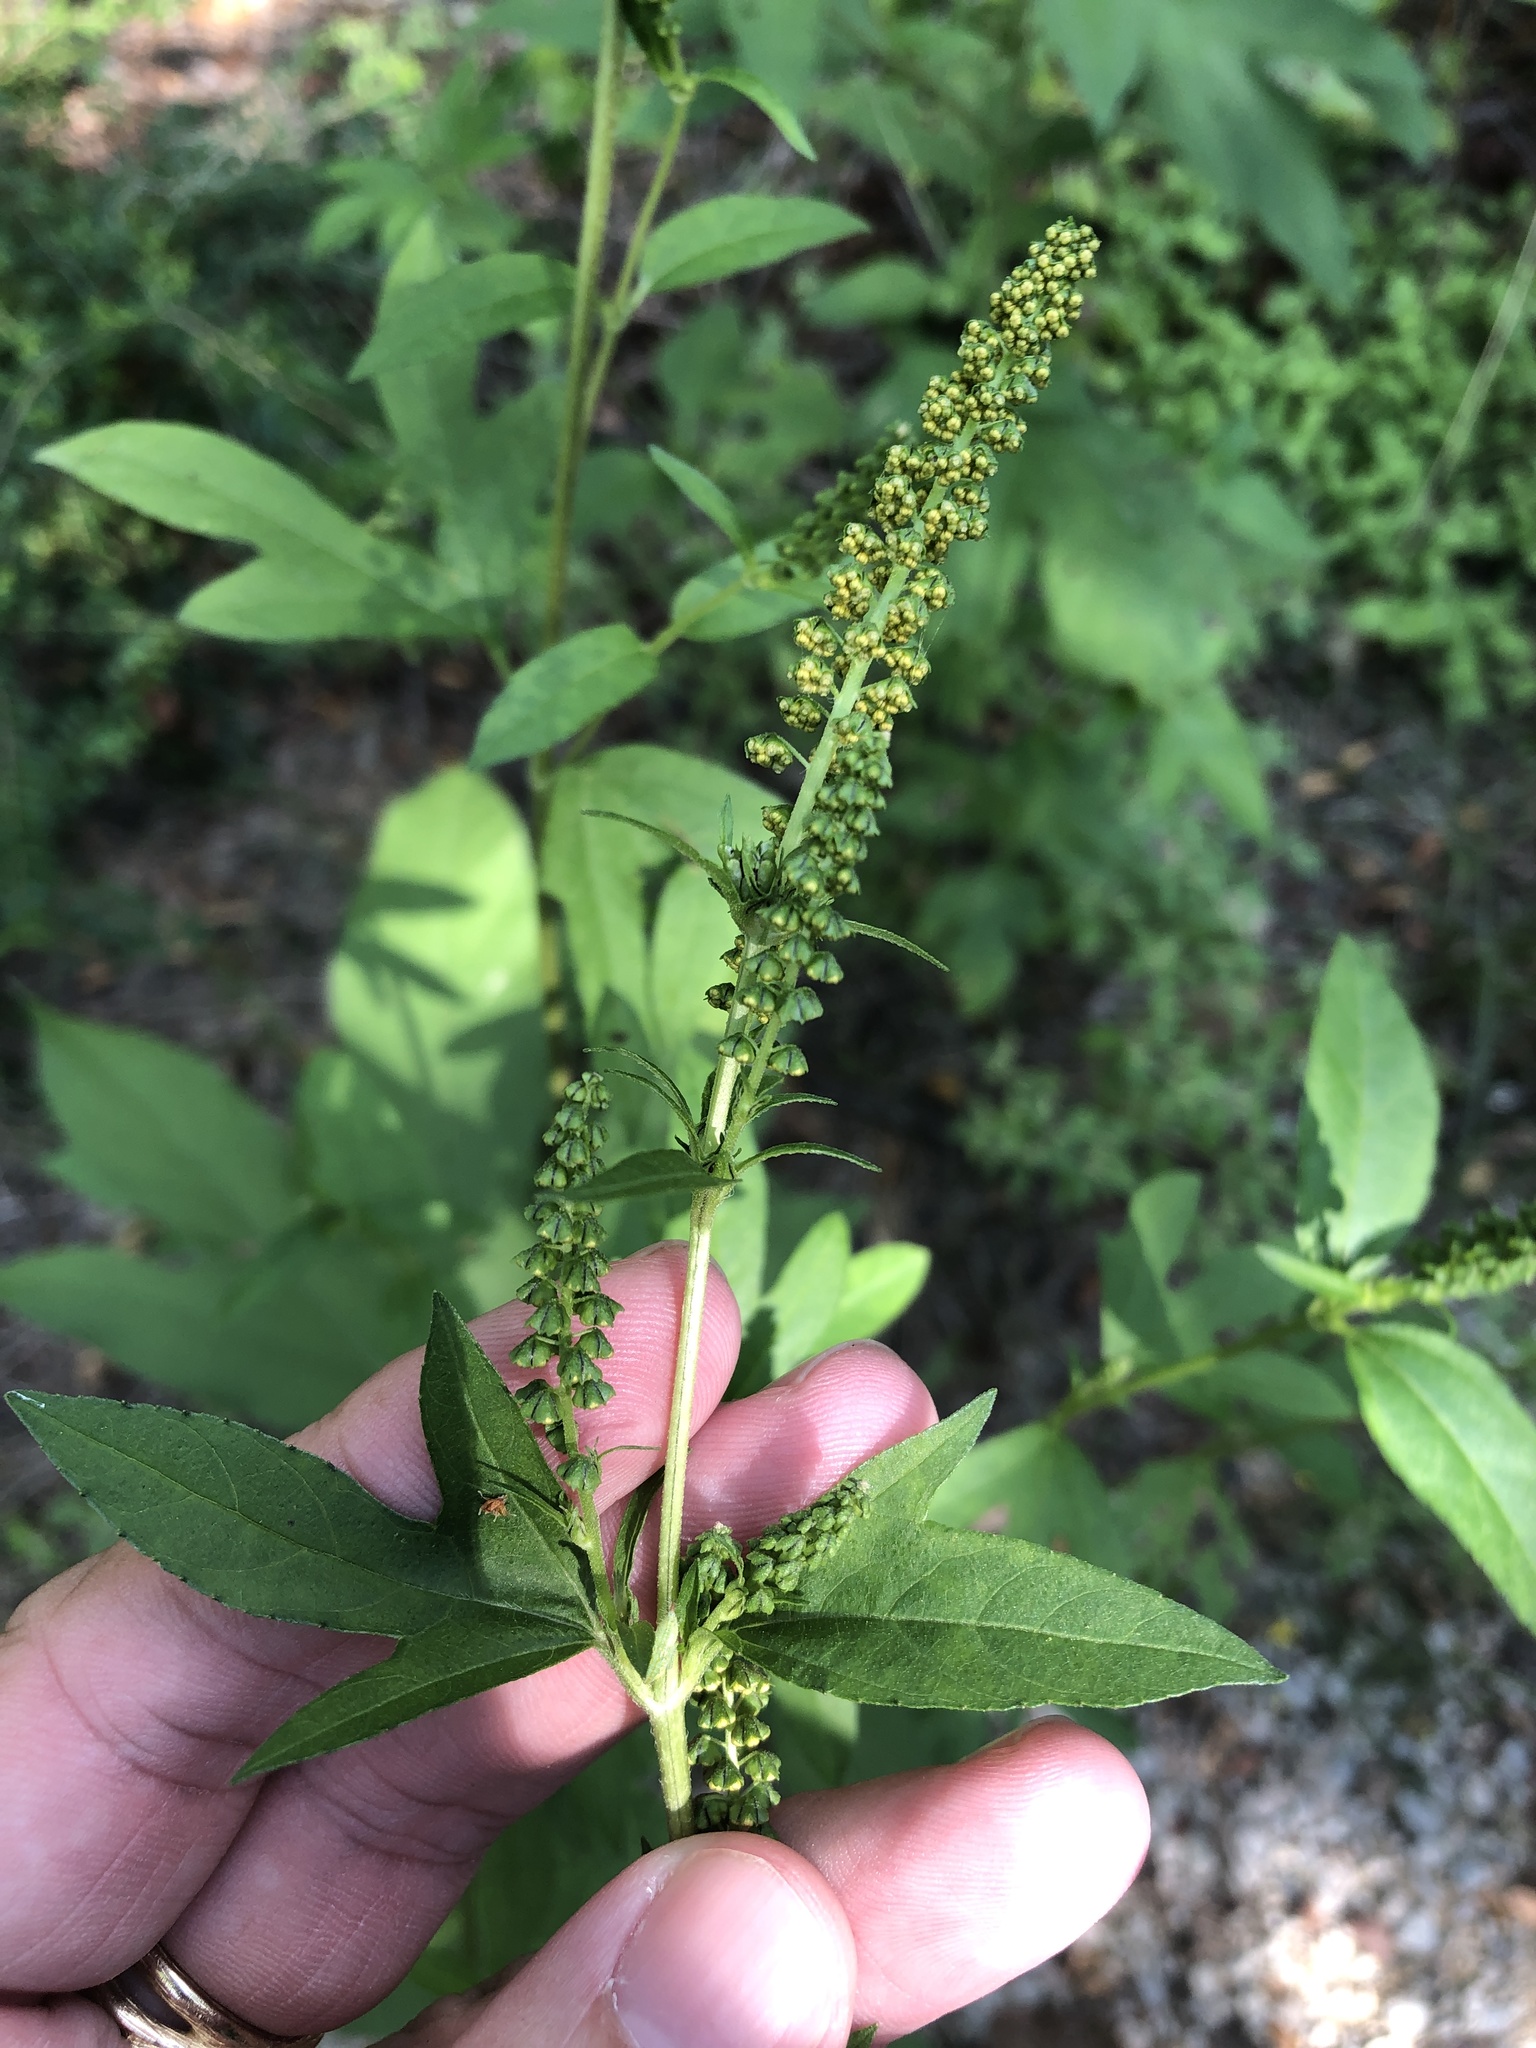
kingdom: Plantae
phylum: Tracheophyta
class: Magnoliopsida
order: Asterales
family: Asteraceae
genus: Ambrosia
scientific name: Ambrosia trifida
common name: Giant ragweed
